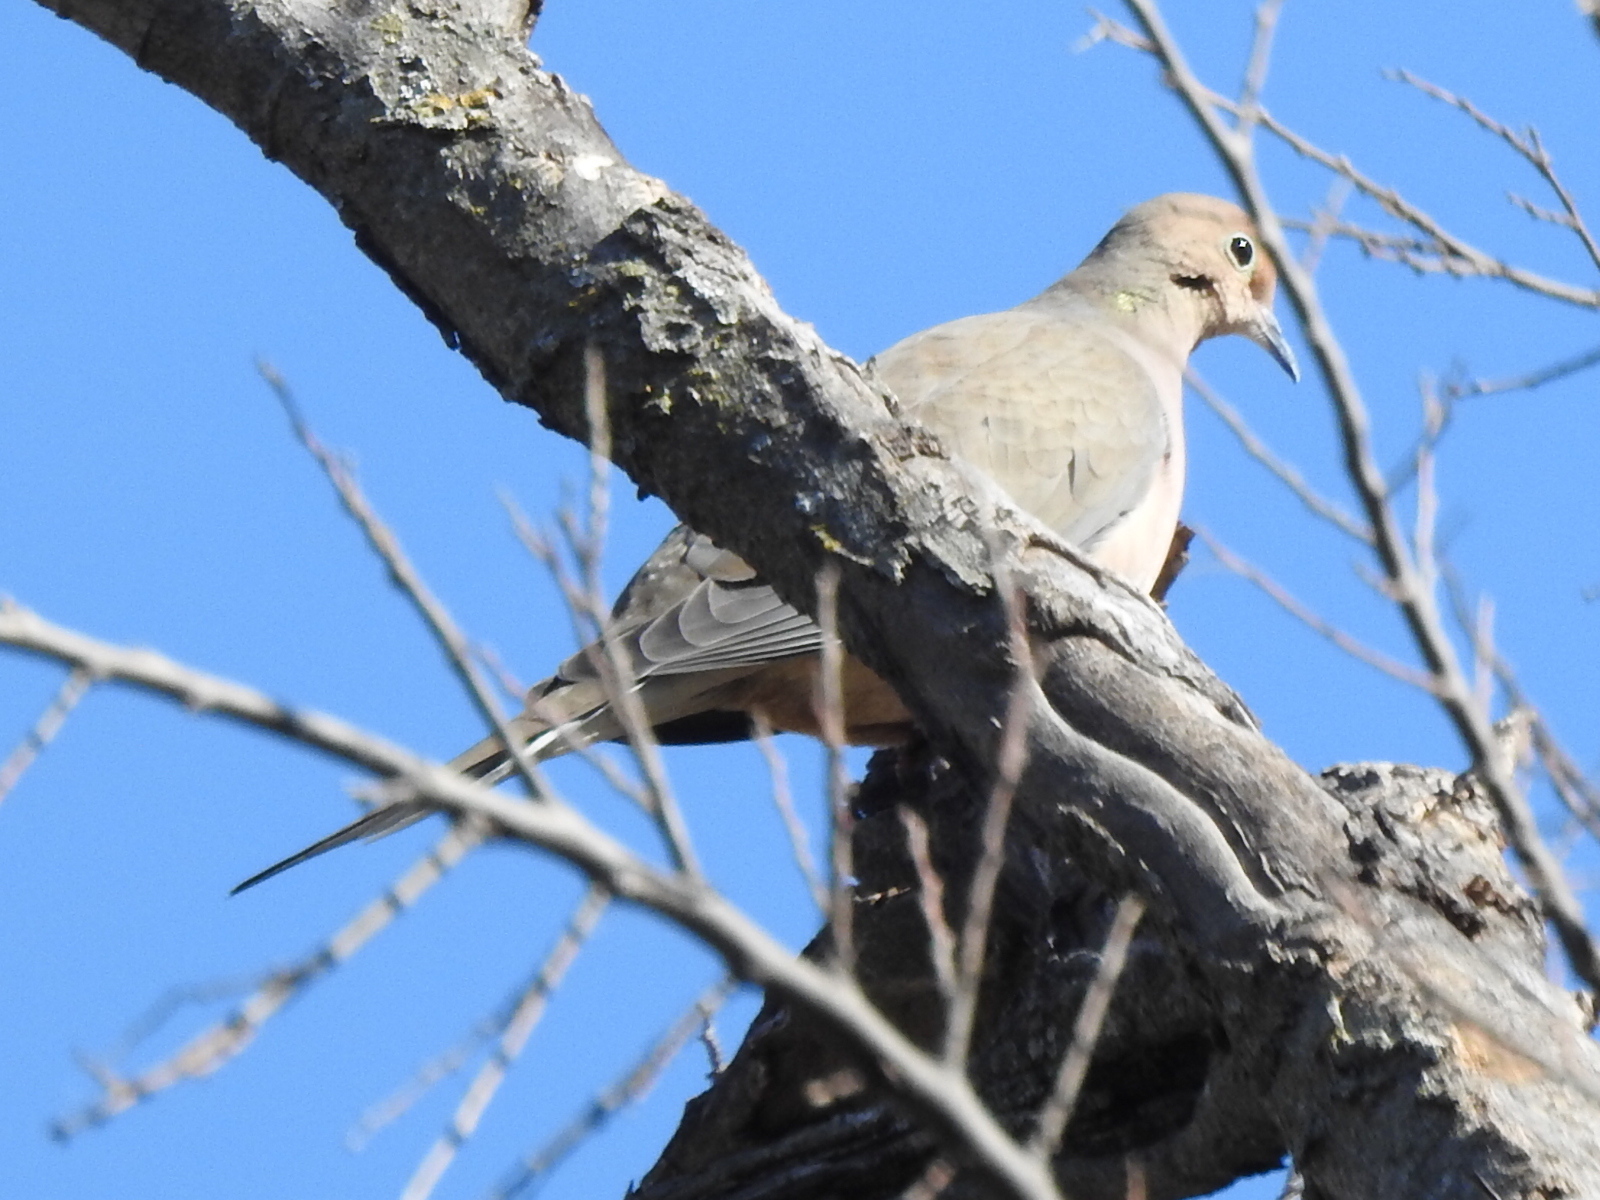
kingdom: Animalia
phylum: Chordata
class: Aves
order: Columbiformes
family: Columbidae
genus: Zenaida
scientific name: Zenaida macroura
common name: Mourning dove
